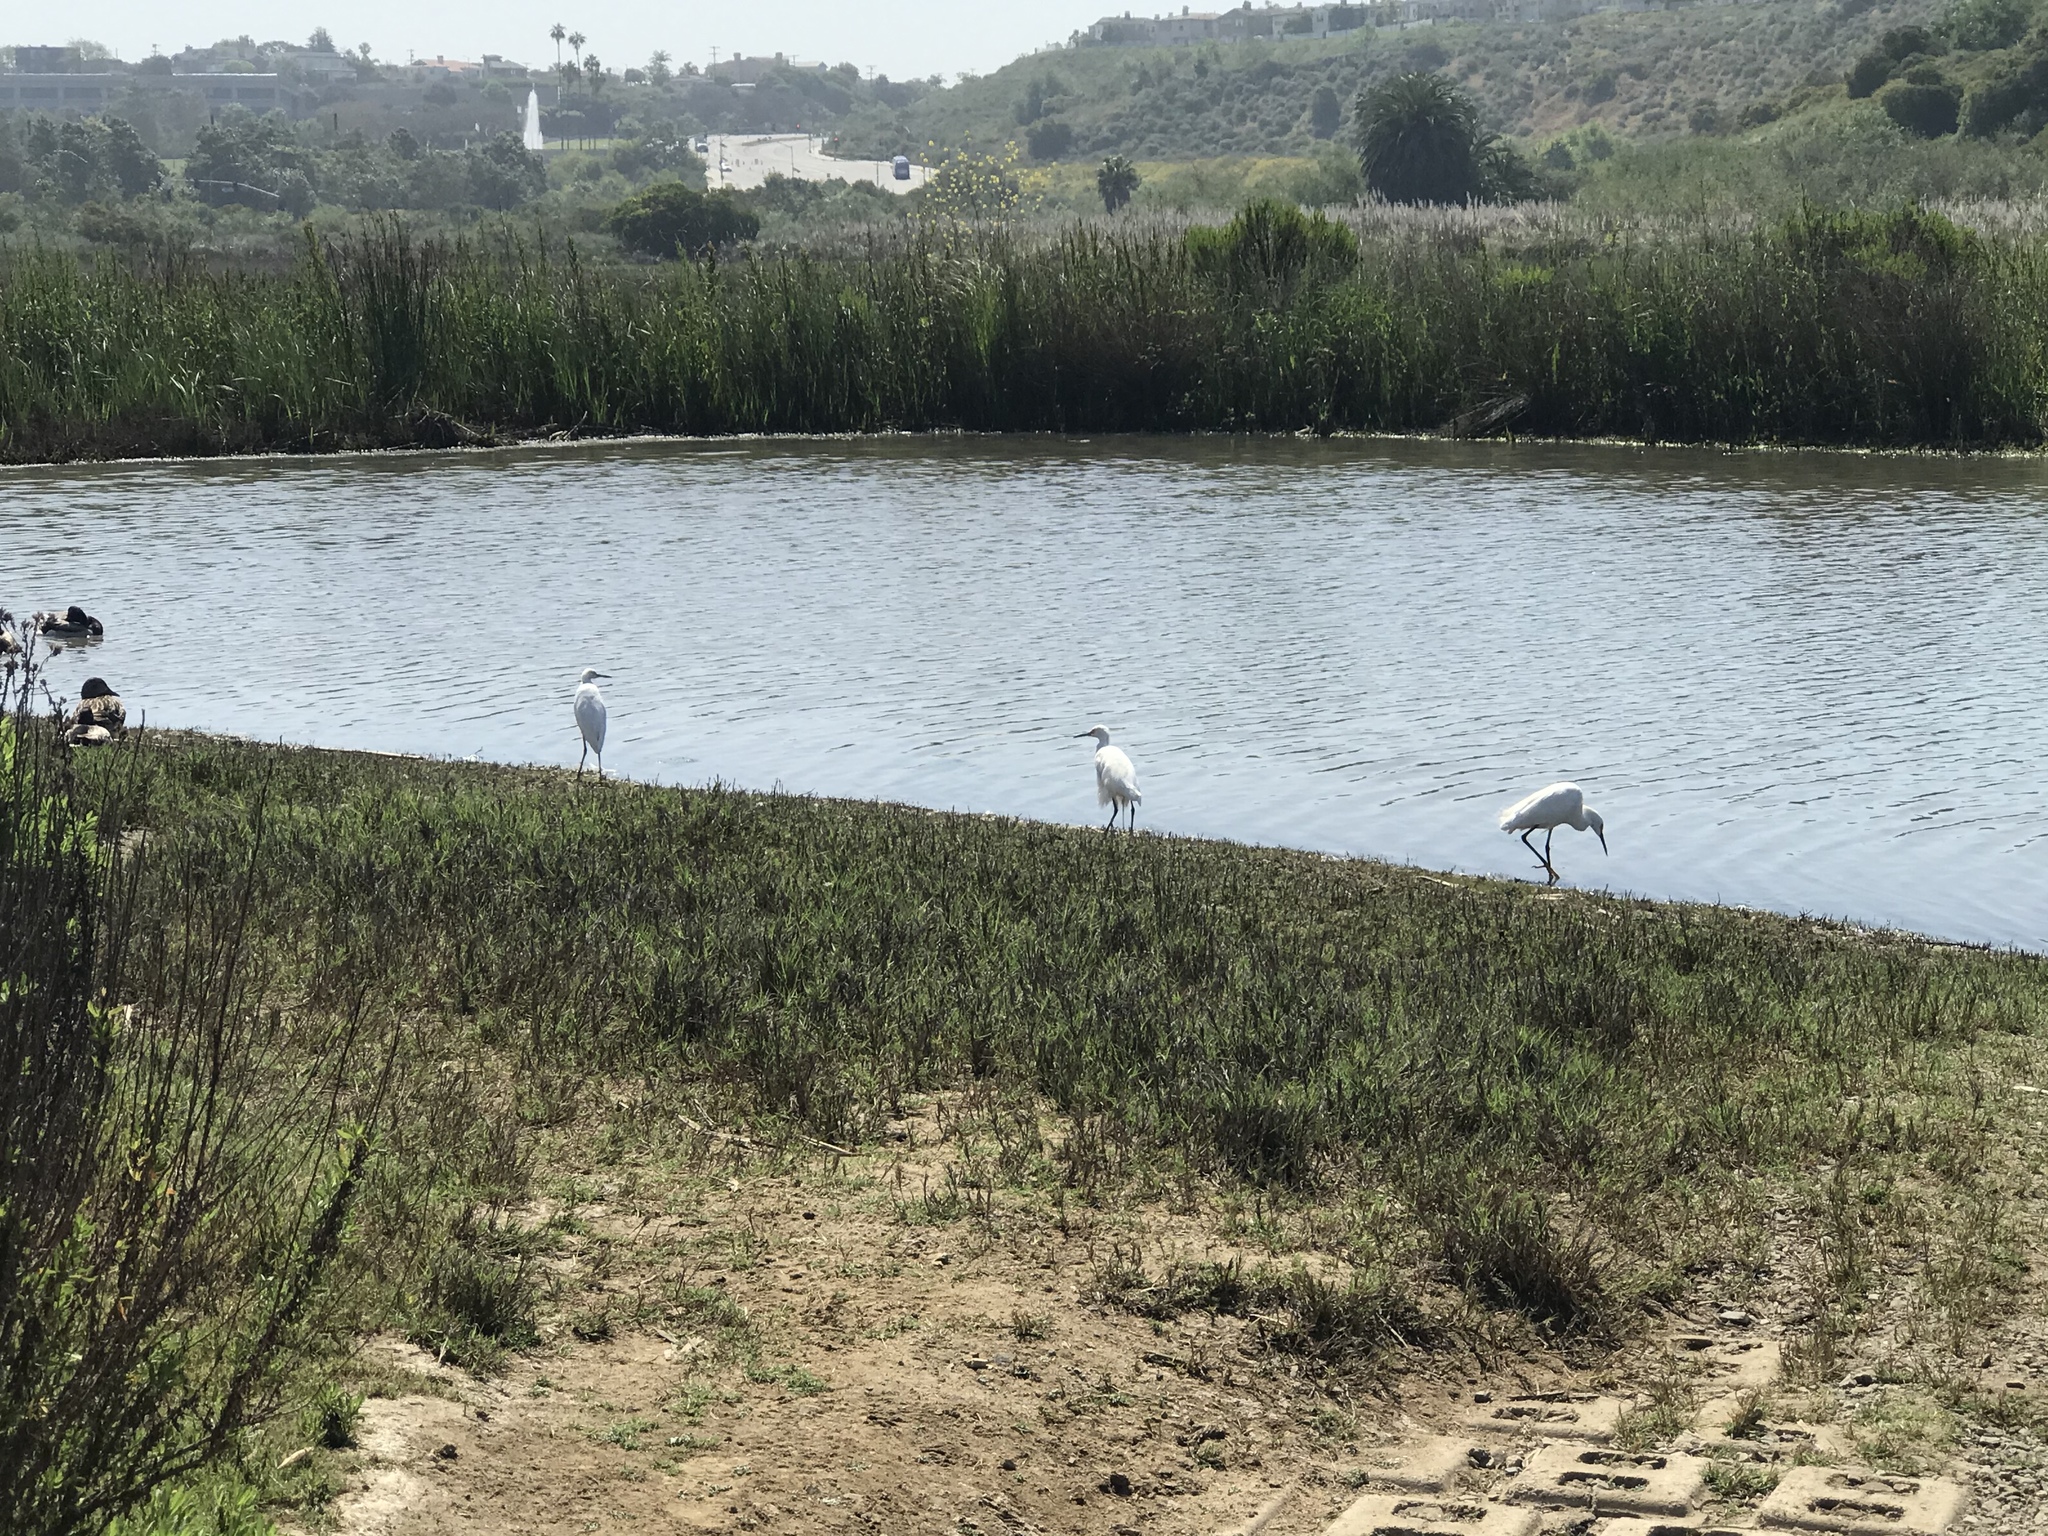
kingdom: Animalia
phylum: Chordata
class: Aves
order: Pelecaniformes
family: Ardeidae
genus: Egretta
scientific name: Egretta thula
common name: Snowy egret
